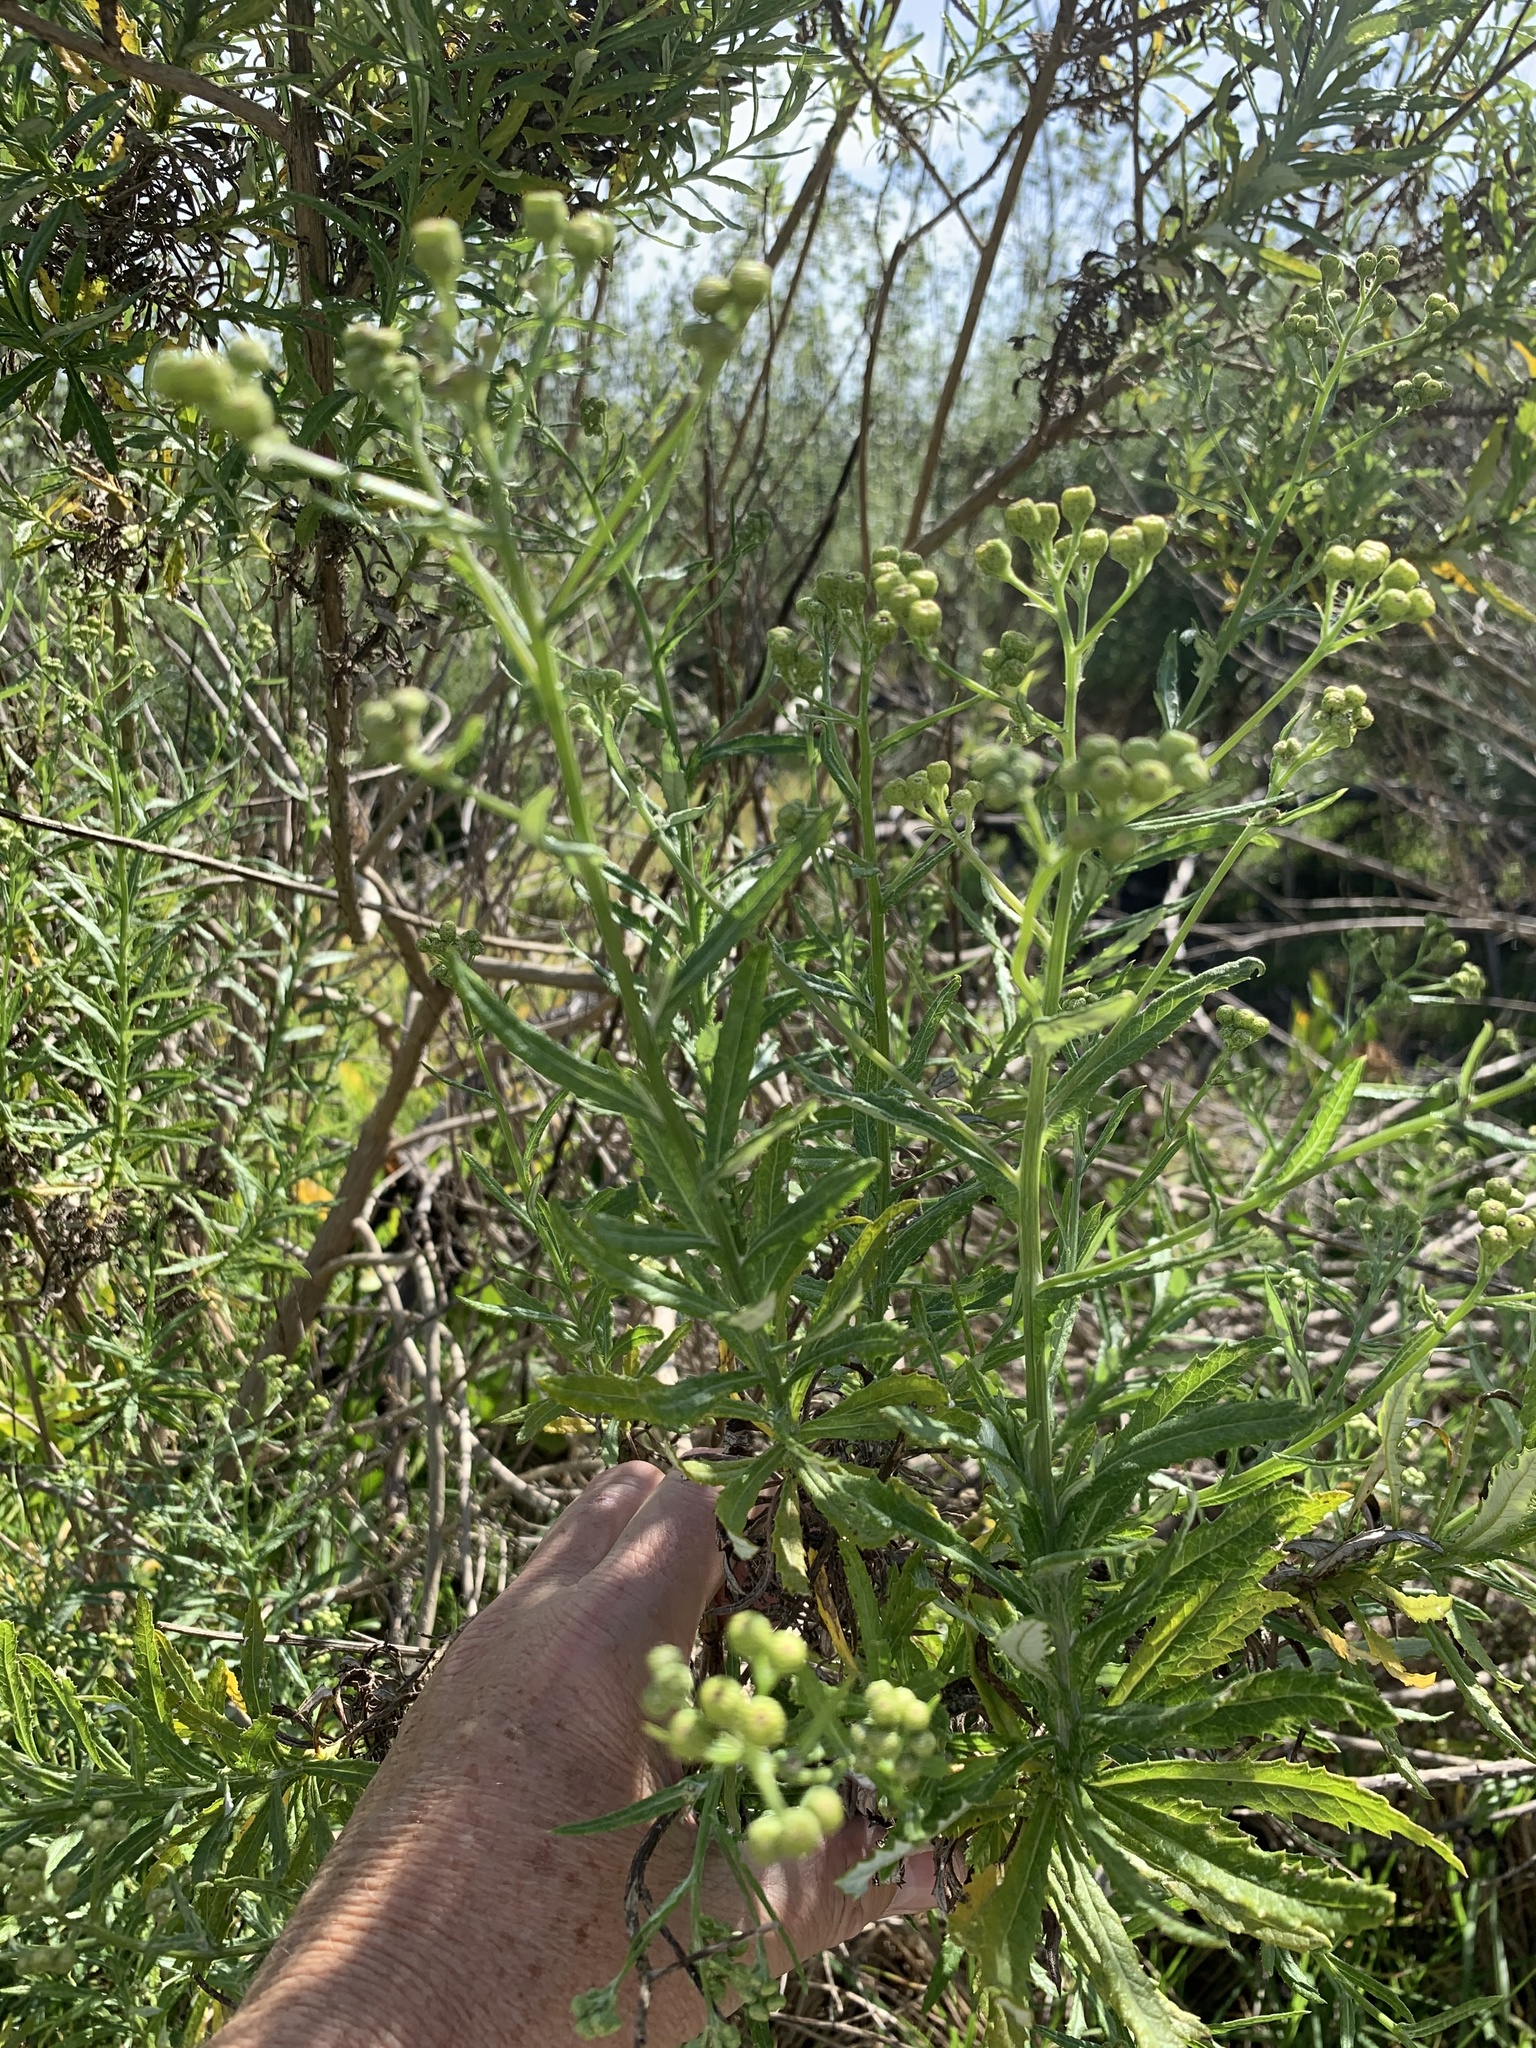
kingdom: Plantae
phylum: Tracheophyta
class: Magnoliopsida
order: Asterales
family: Asteraceae
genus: Senecio
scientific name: Senecio pterophorus
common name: Shoddy ragwort
